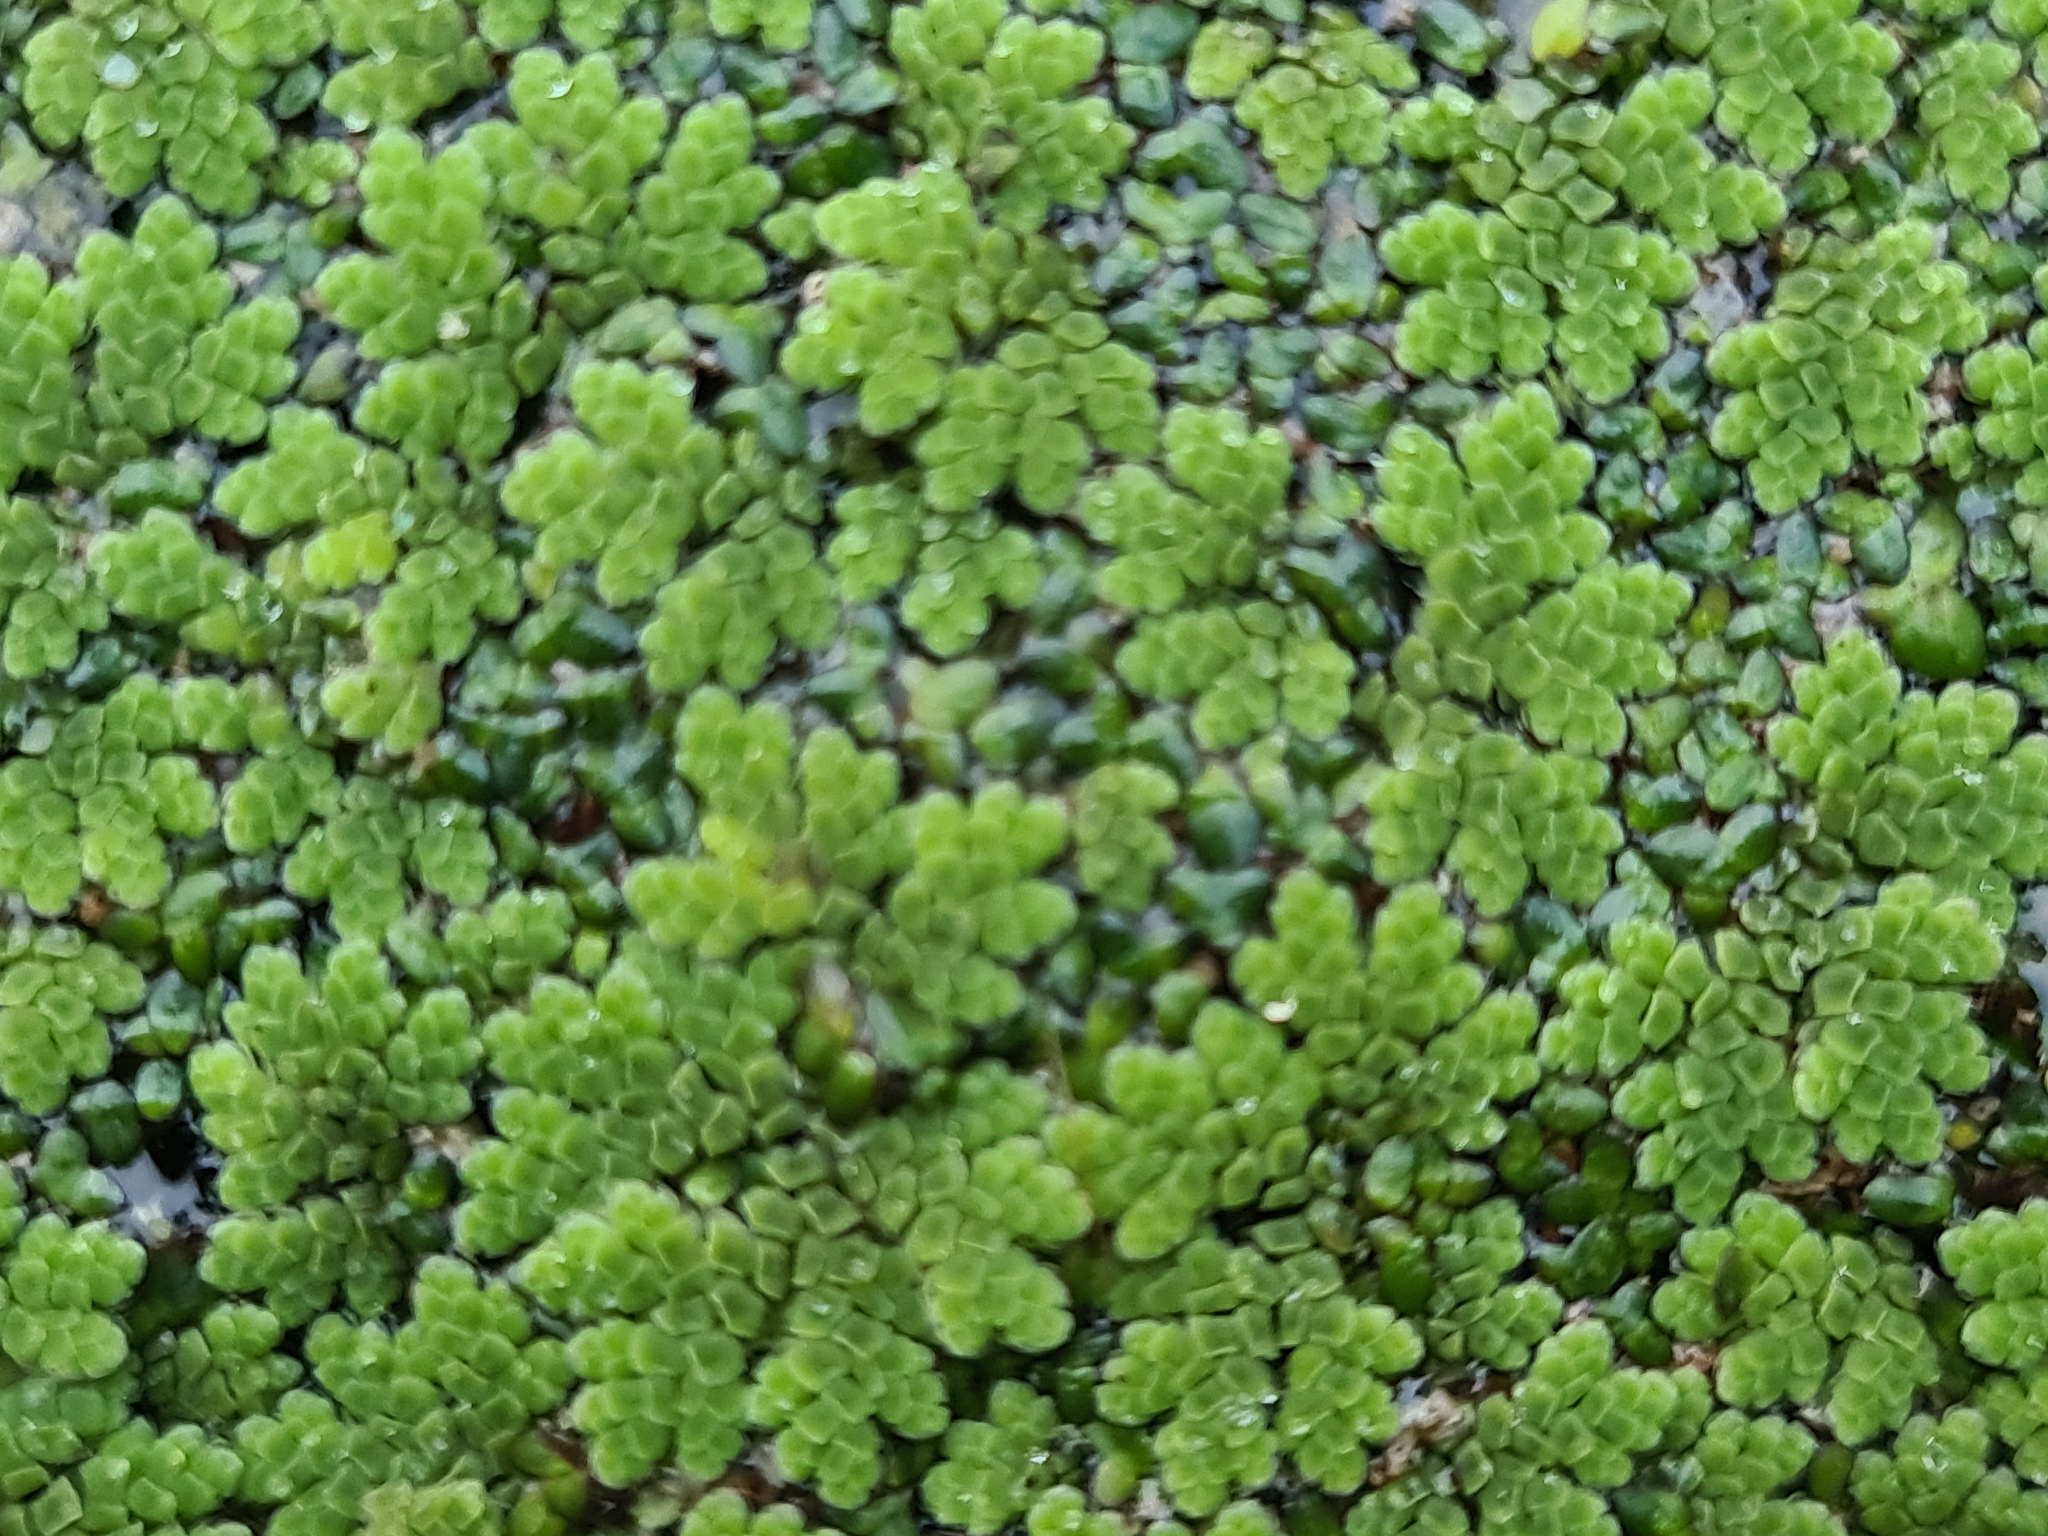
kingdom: Plantae
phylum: Tracheophyta
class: Polypodiopsida
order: Salviniales
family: Salviniaceae
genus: Azolla
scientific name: Azolla rubra
